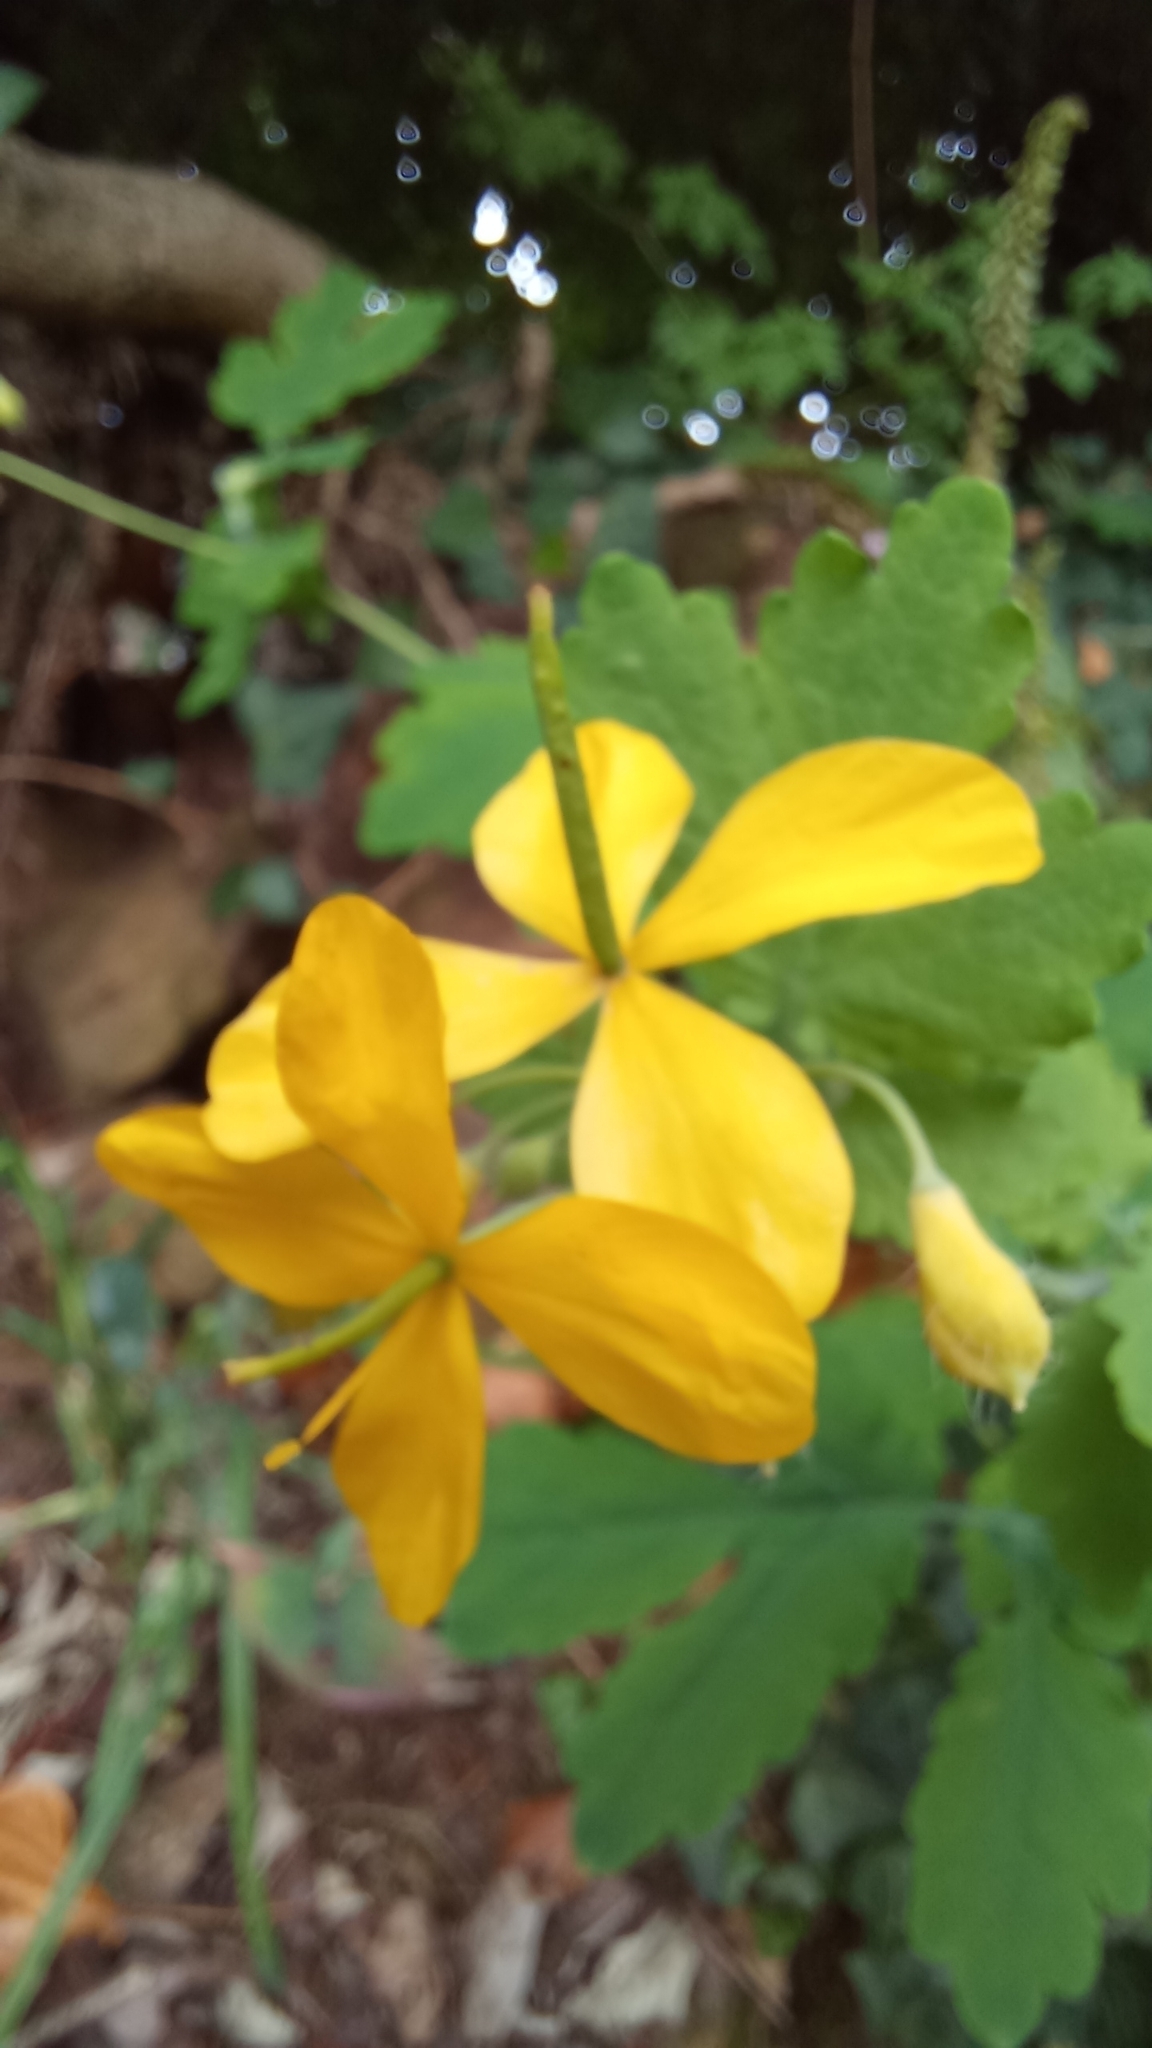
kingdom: Plantae
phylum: Tracheophyta
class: Magnoliopsida
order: Ranunculales
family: Papaveraceae
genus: Chelidonium
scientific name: Chelidonium majus
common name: Greater celandine
